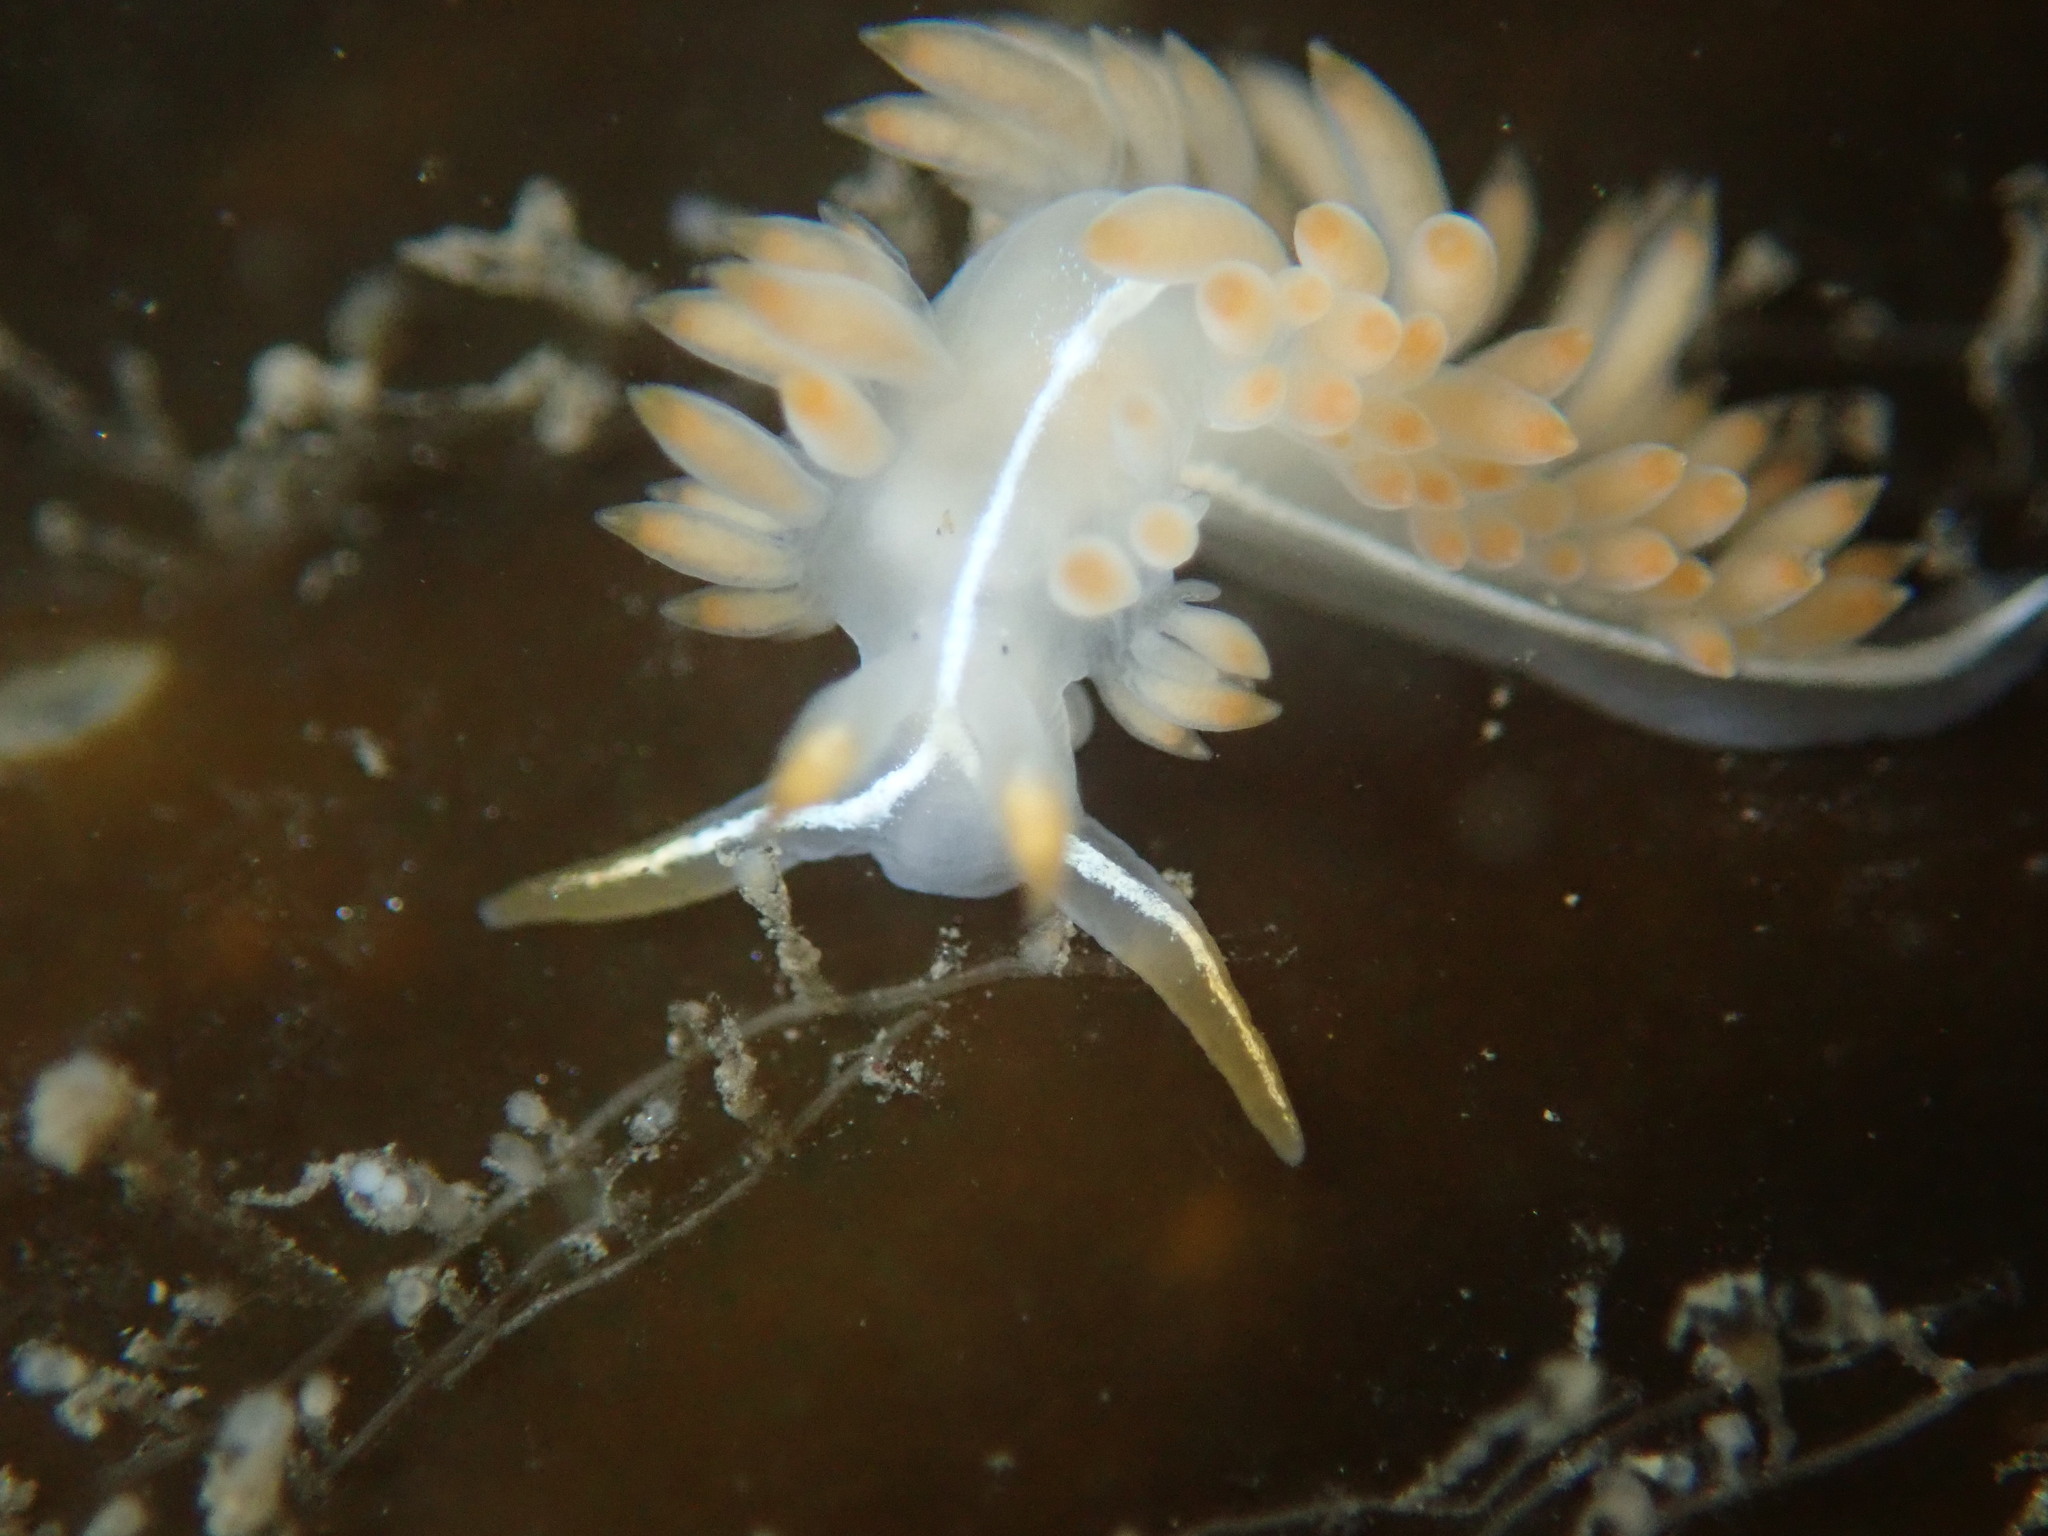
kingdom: Animalia
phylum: Mollusca
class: Gastropoda
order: Nudibranchia
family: Coryphellidae
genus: Coryphella
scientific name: Coryphella trilineata
